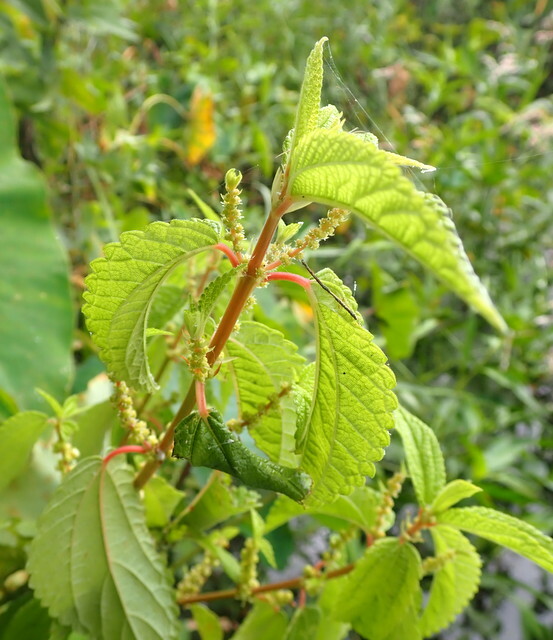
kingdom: Plantae
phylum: Tracheophyta
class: Magnoliopsida
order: Rosales
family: Urticaceae
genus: Boehmeria
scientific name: Boehmeria cylindrica
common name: Bog-hemp
